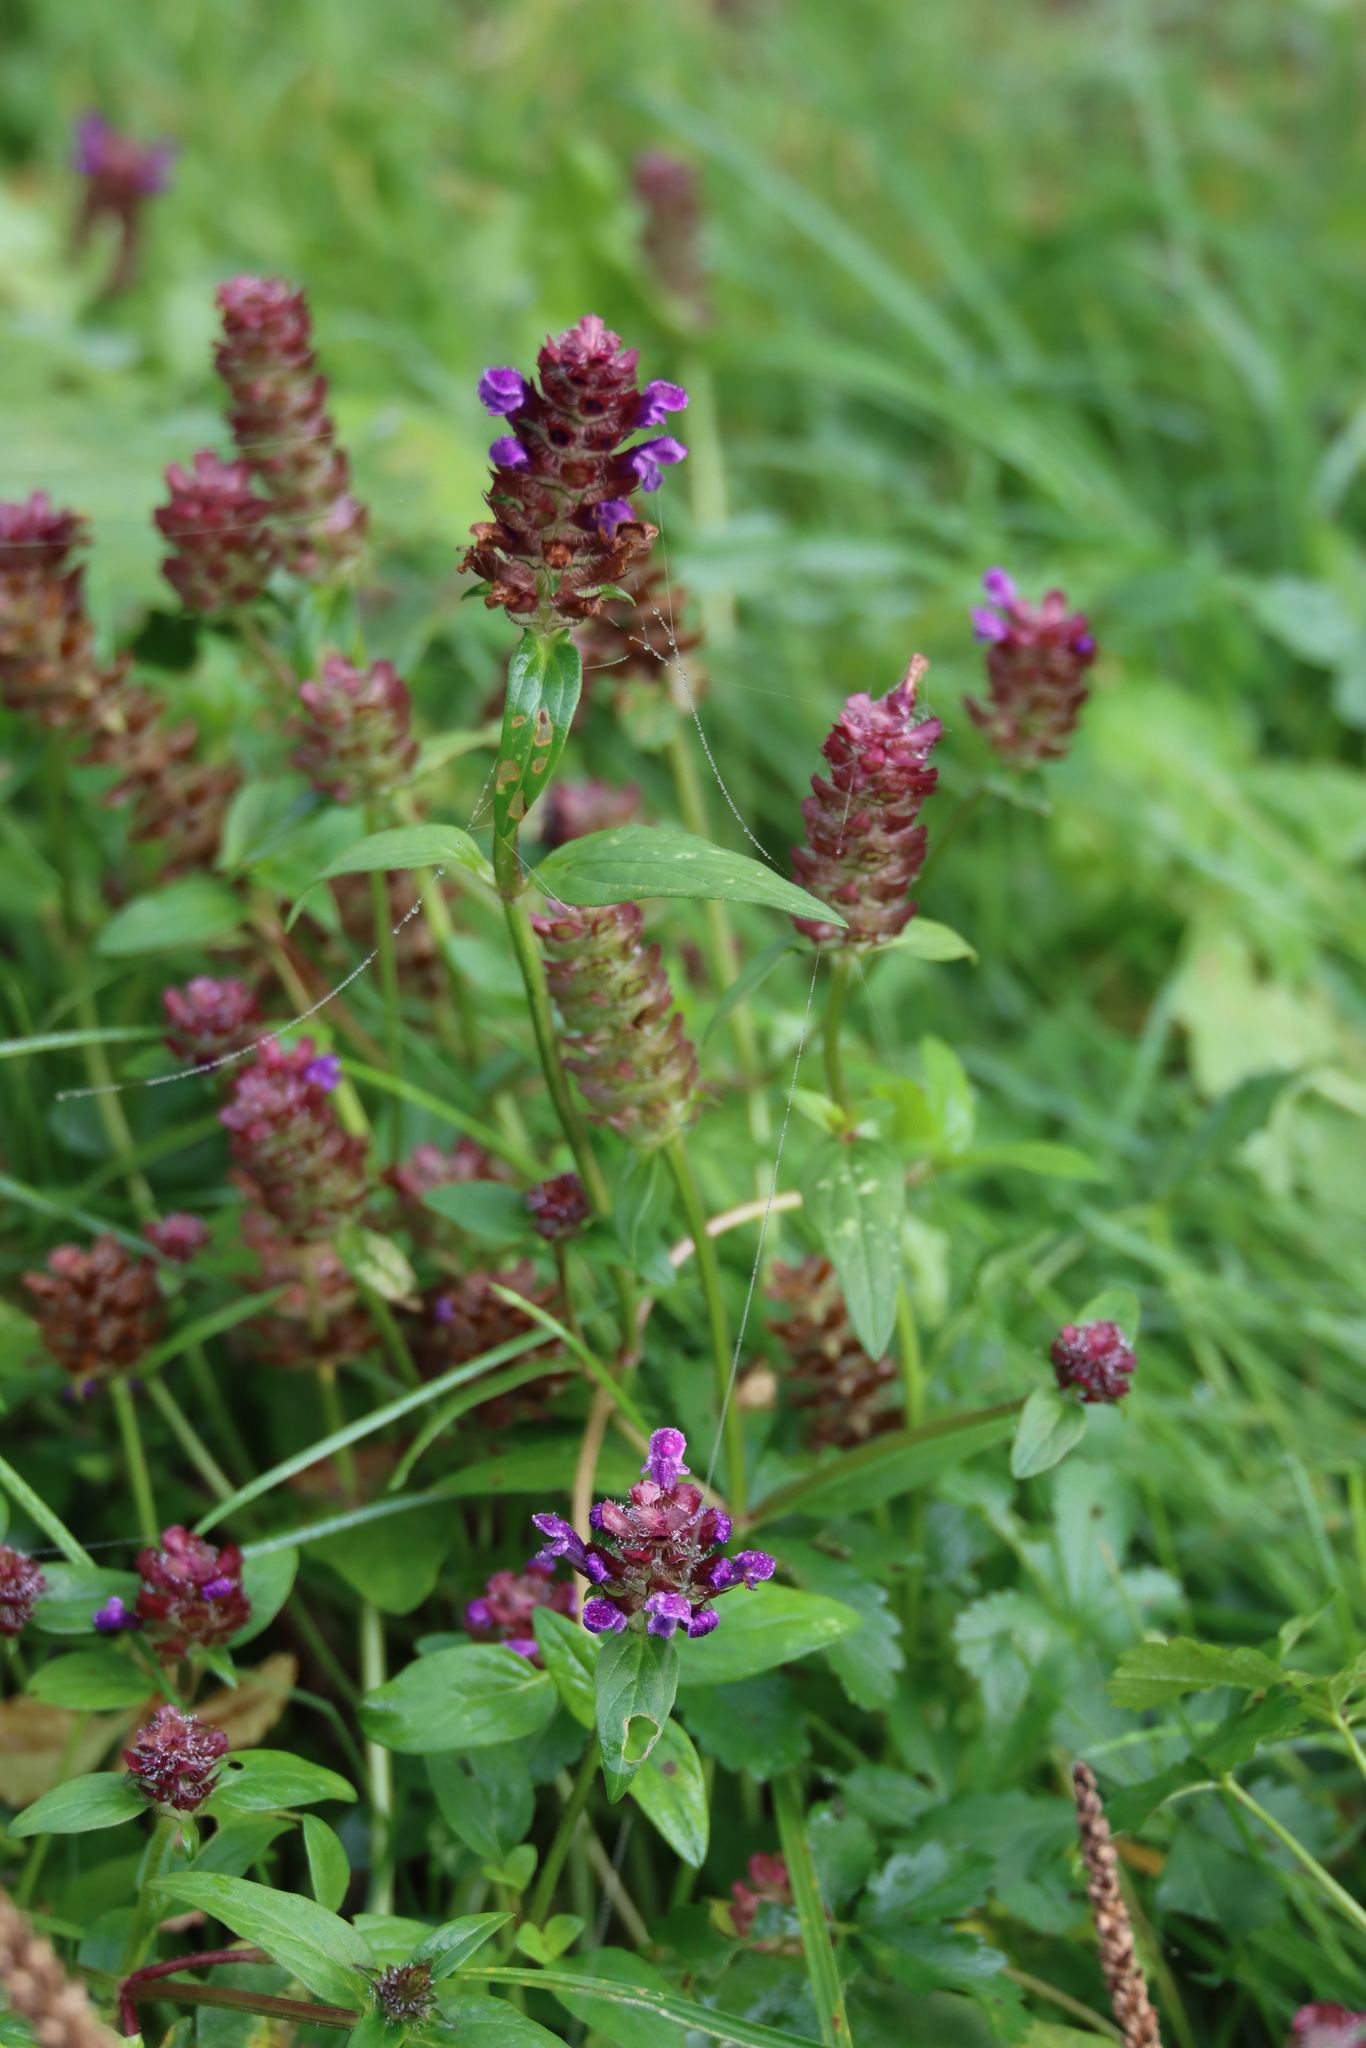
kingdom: Plantae
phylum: Tracheophyta
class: Magnoliopsida
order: Lamiales
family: Lamiaceae
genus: Prunella
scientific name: Prunella vulgaris
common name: Heal-all
